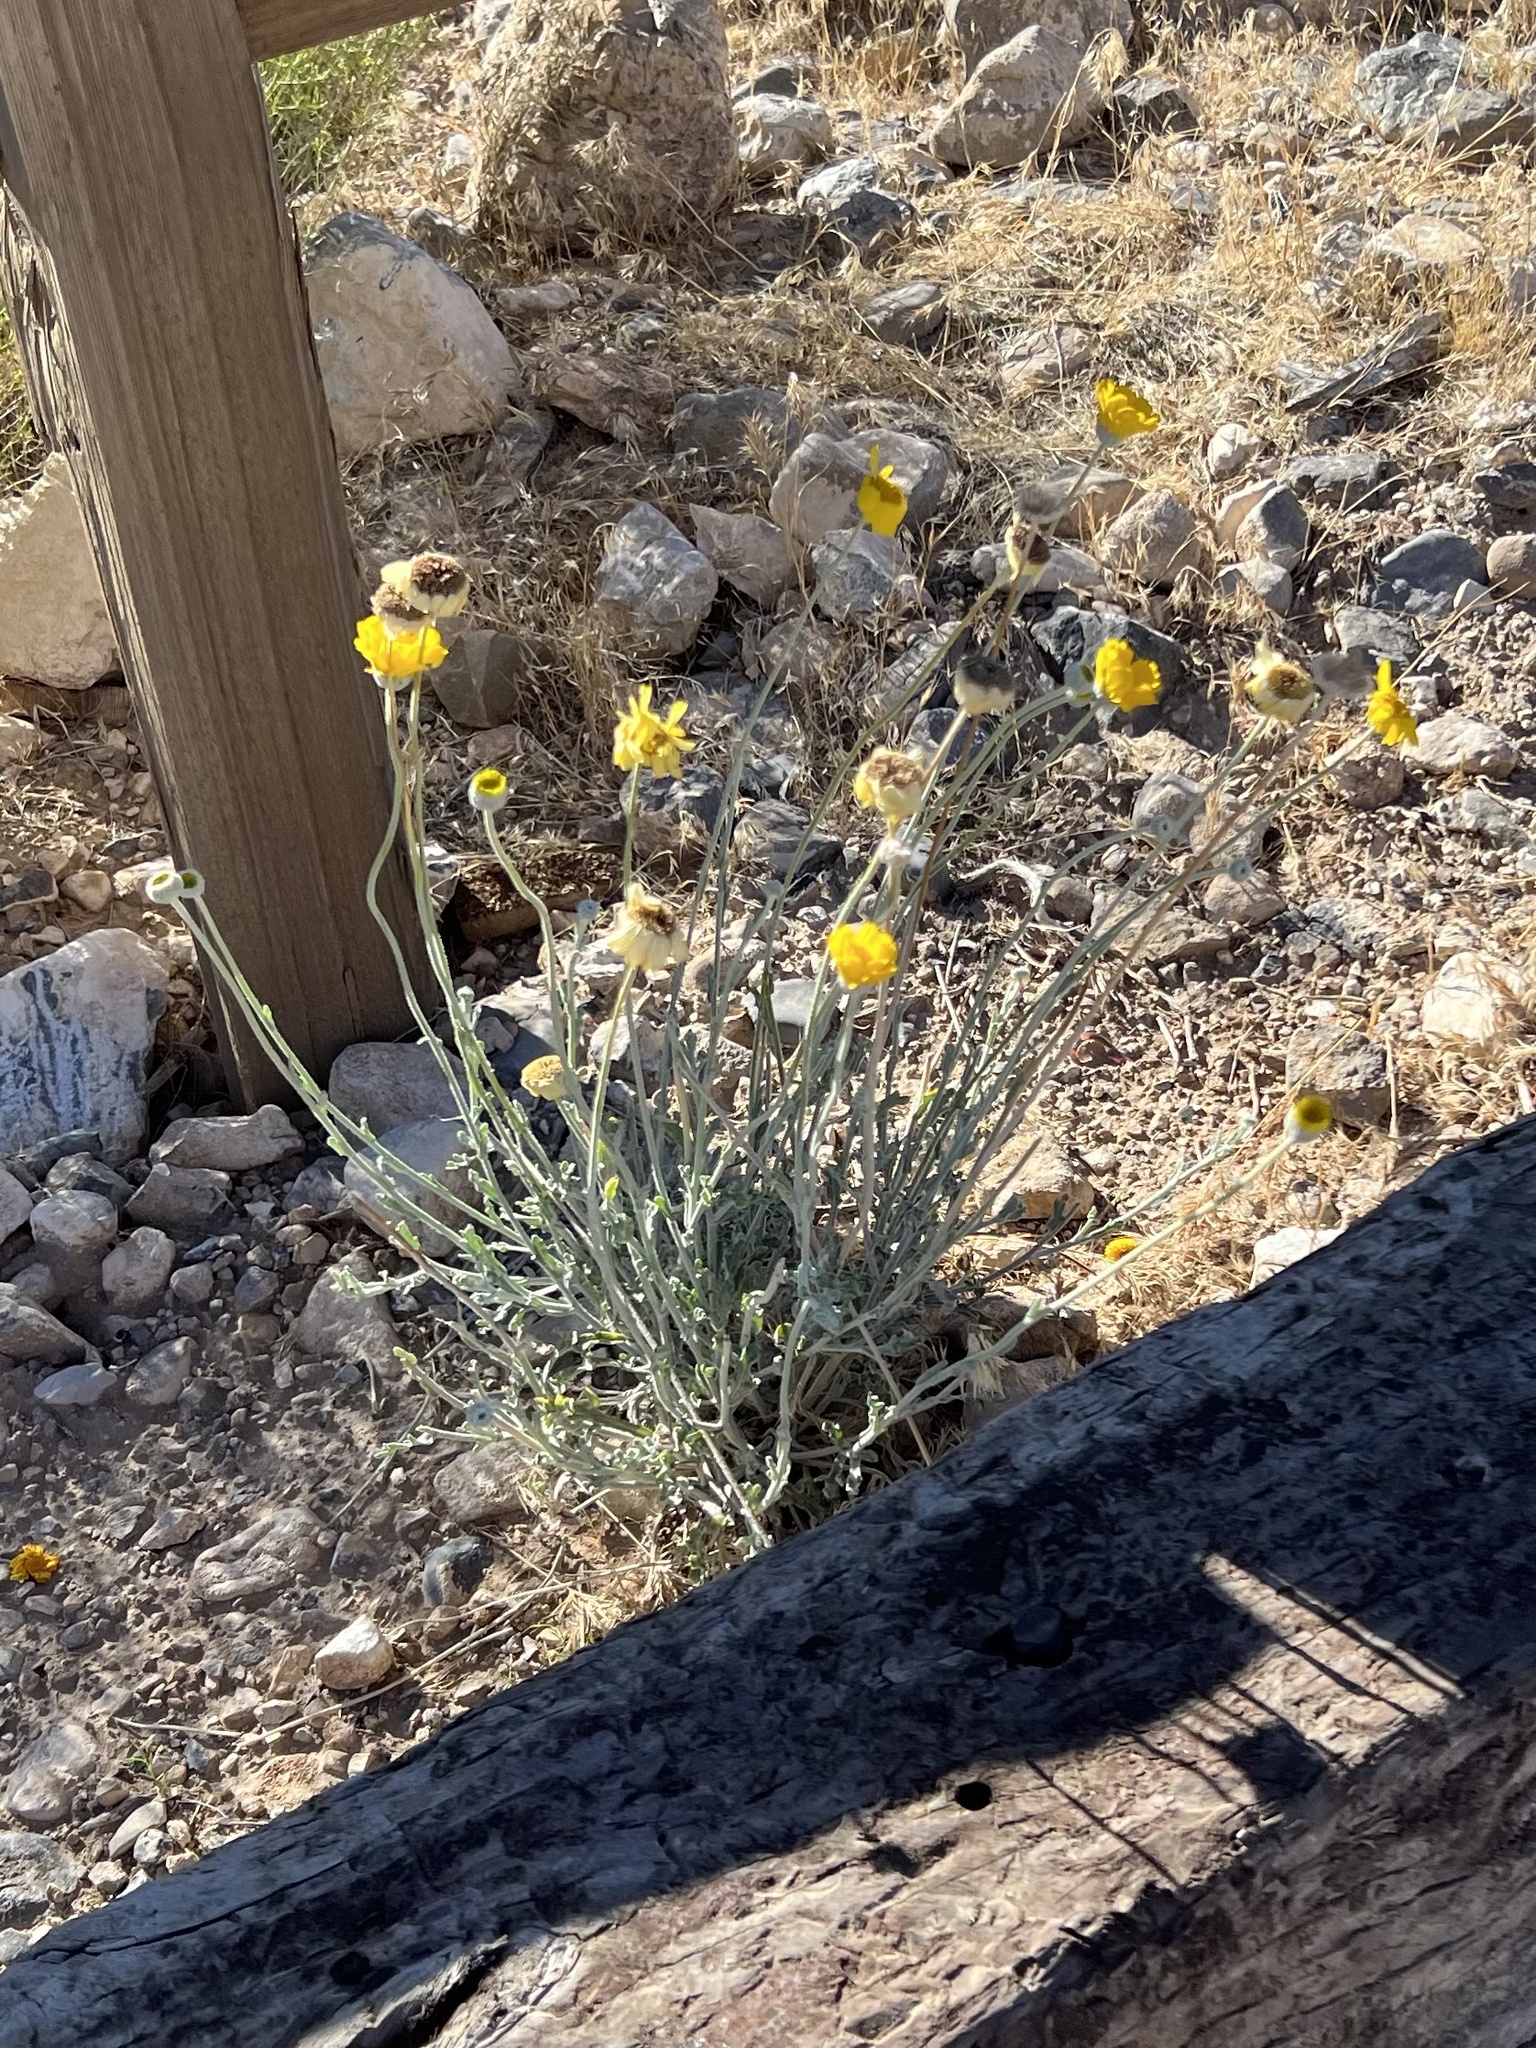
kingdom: Plantae
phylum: Tracheophyta
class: Magnoliopsida
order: Asterales
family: Asteraceae
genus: Baileya
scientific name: Baileya multiradiata
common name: Desert-marigold
